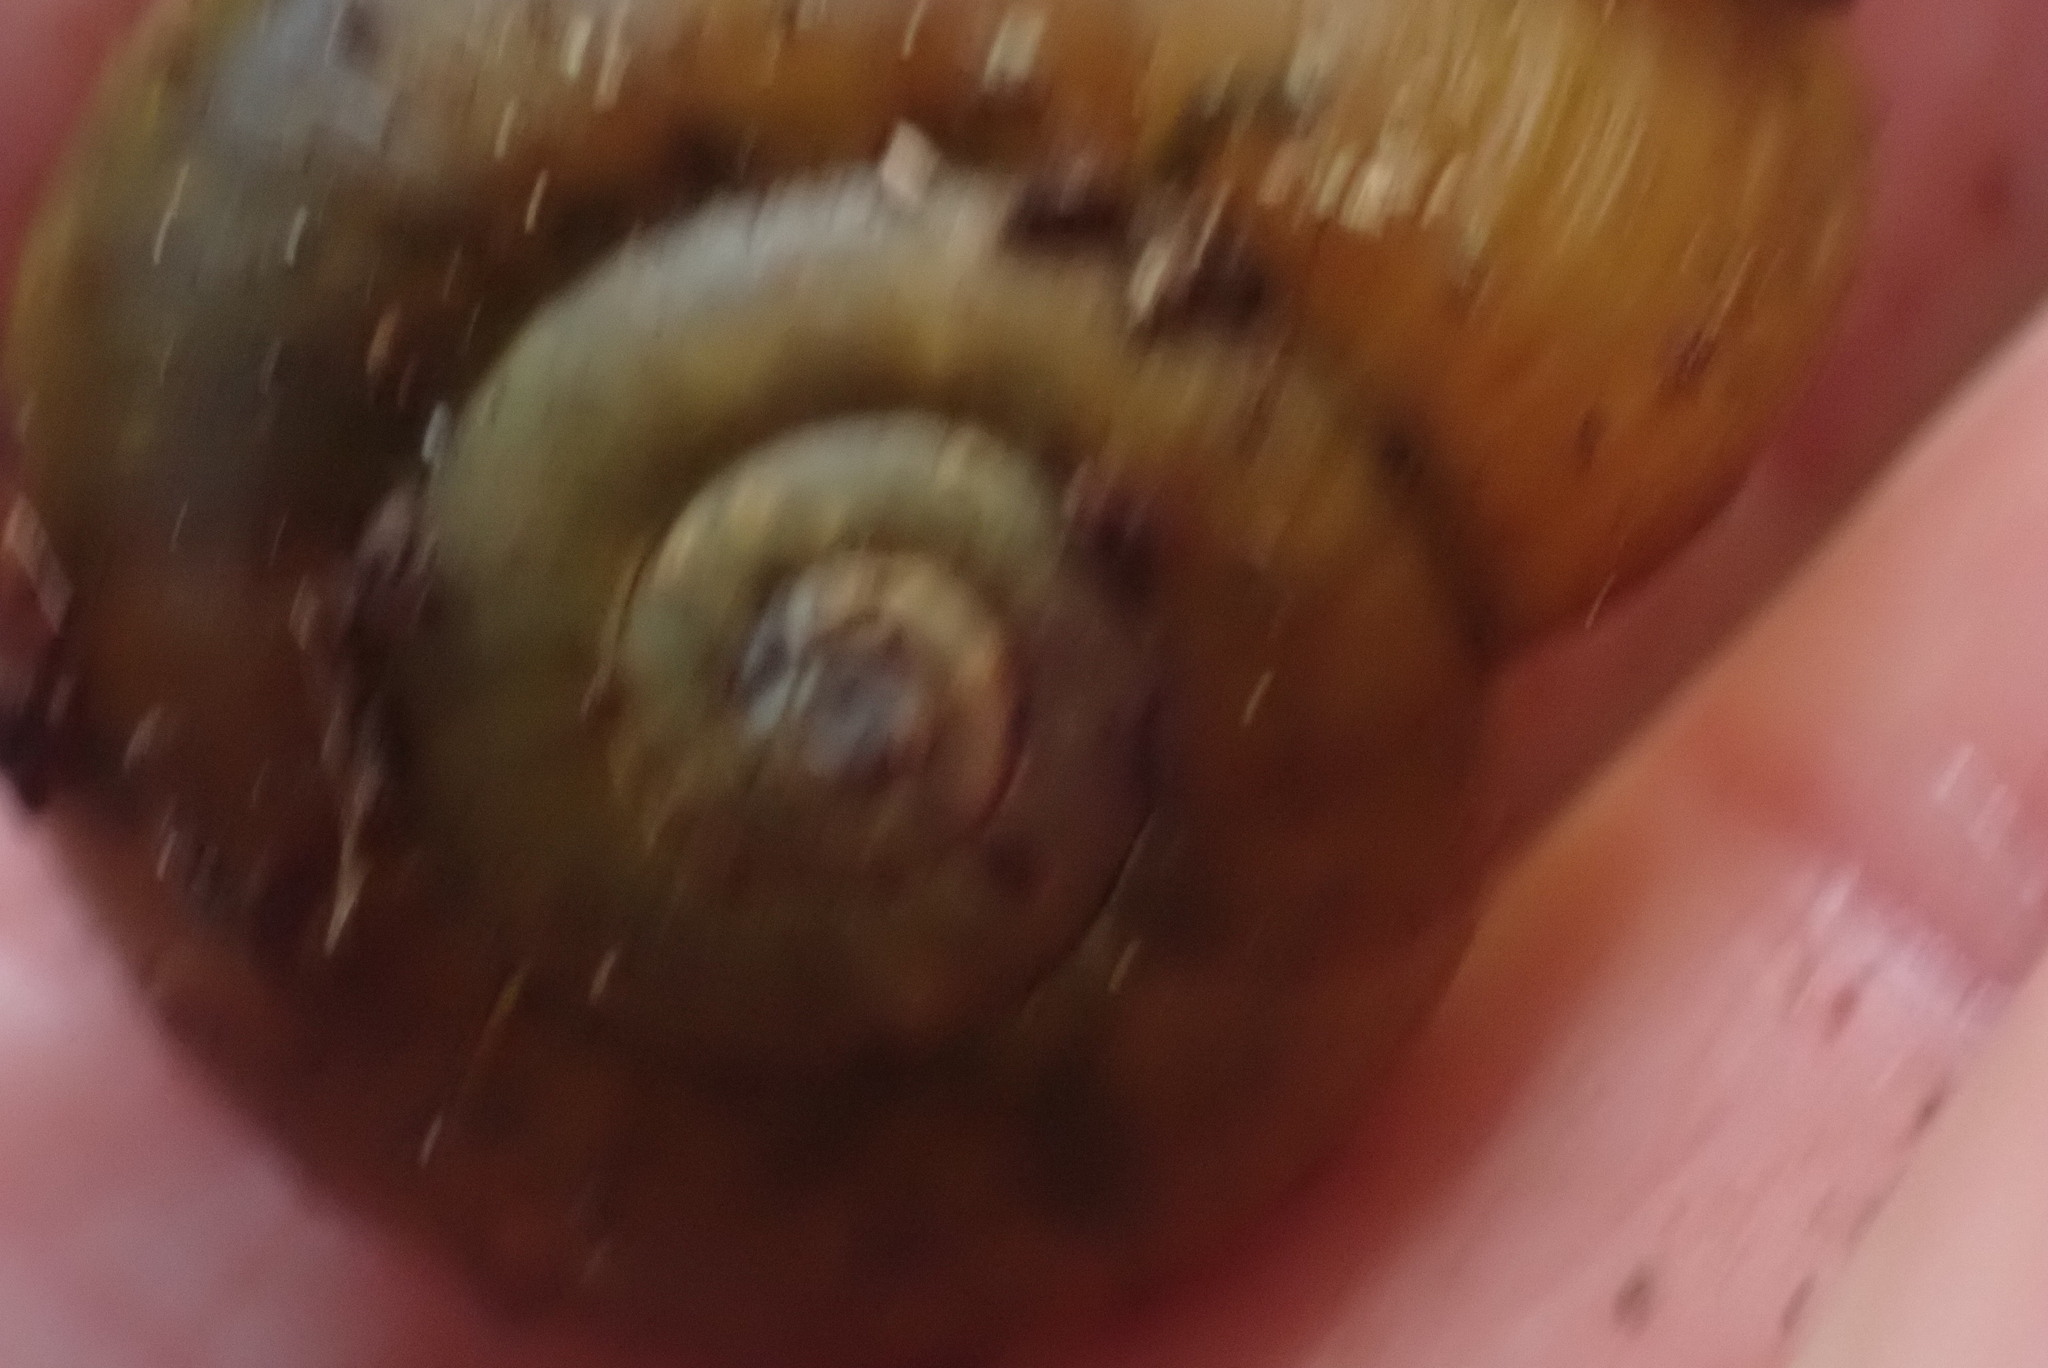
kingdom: Animalia
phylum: Mollusca
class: Gastropoda
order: Stylommatophora
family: Haplotrematidae
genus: Haplotrema
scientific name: Haplotrema vancouverense
